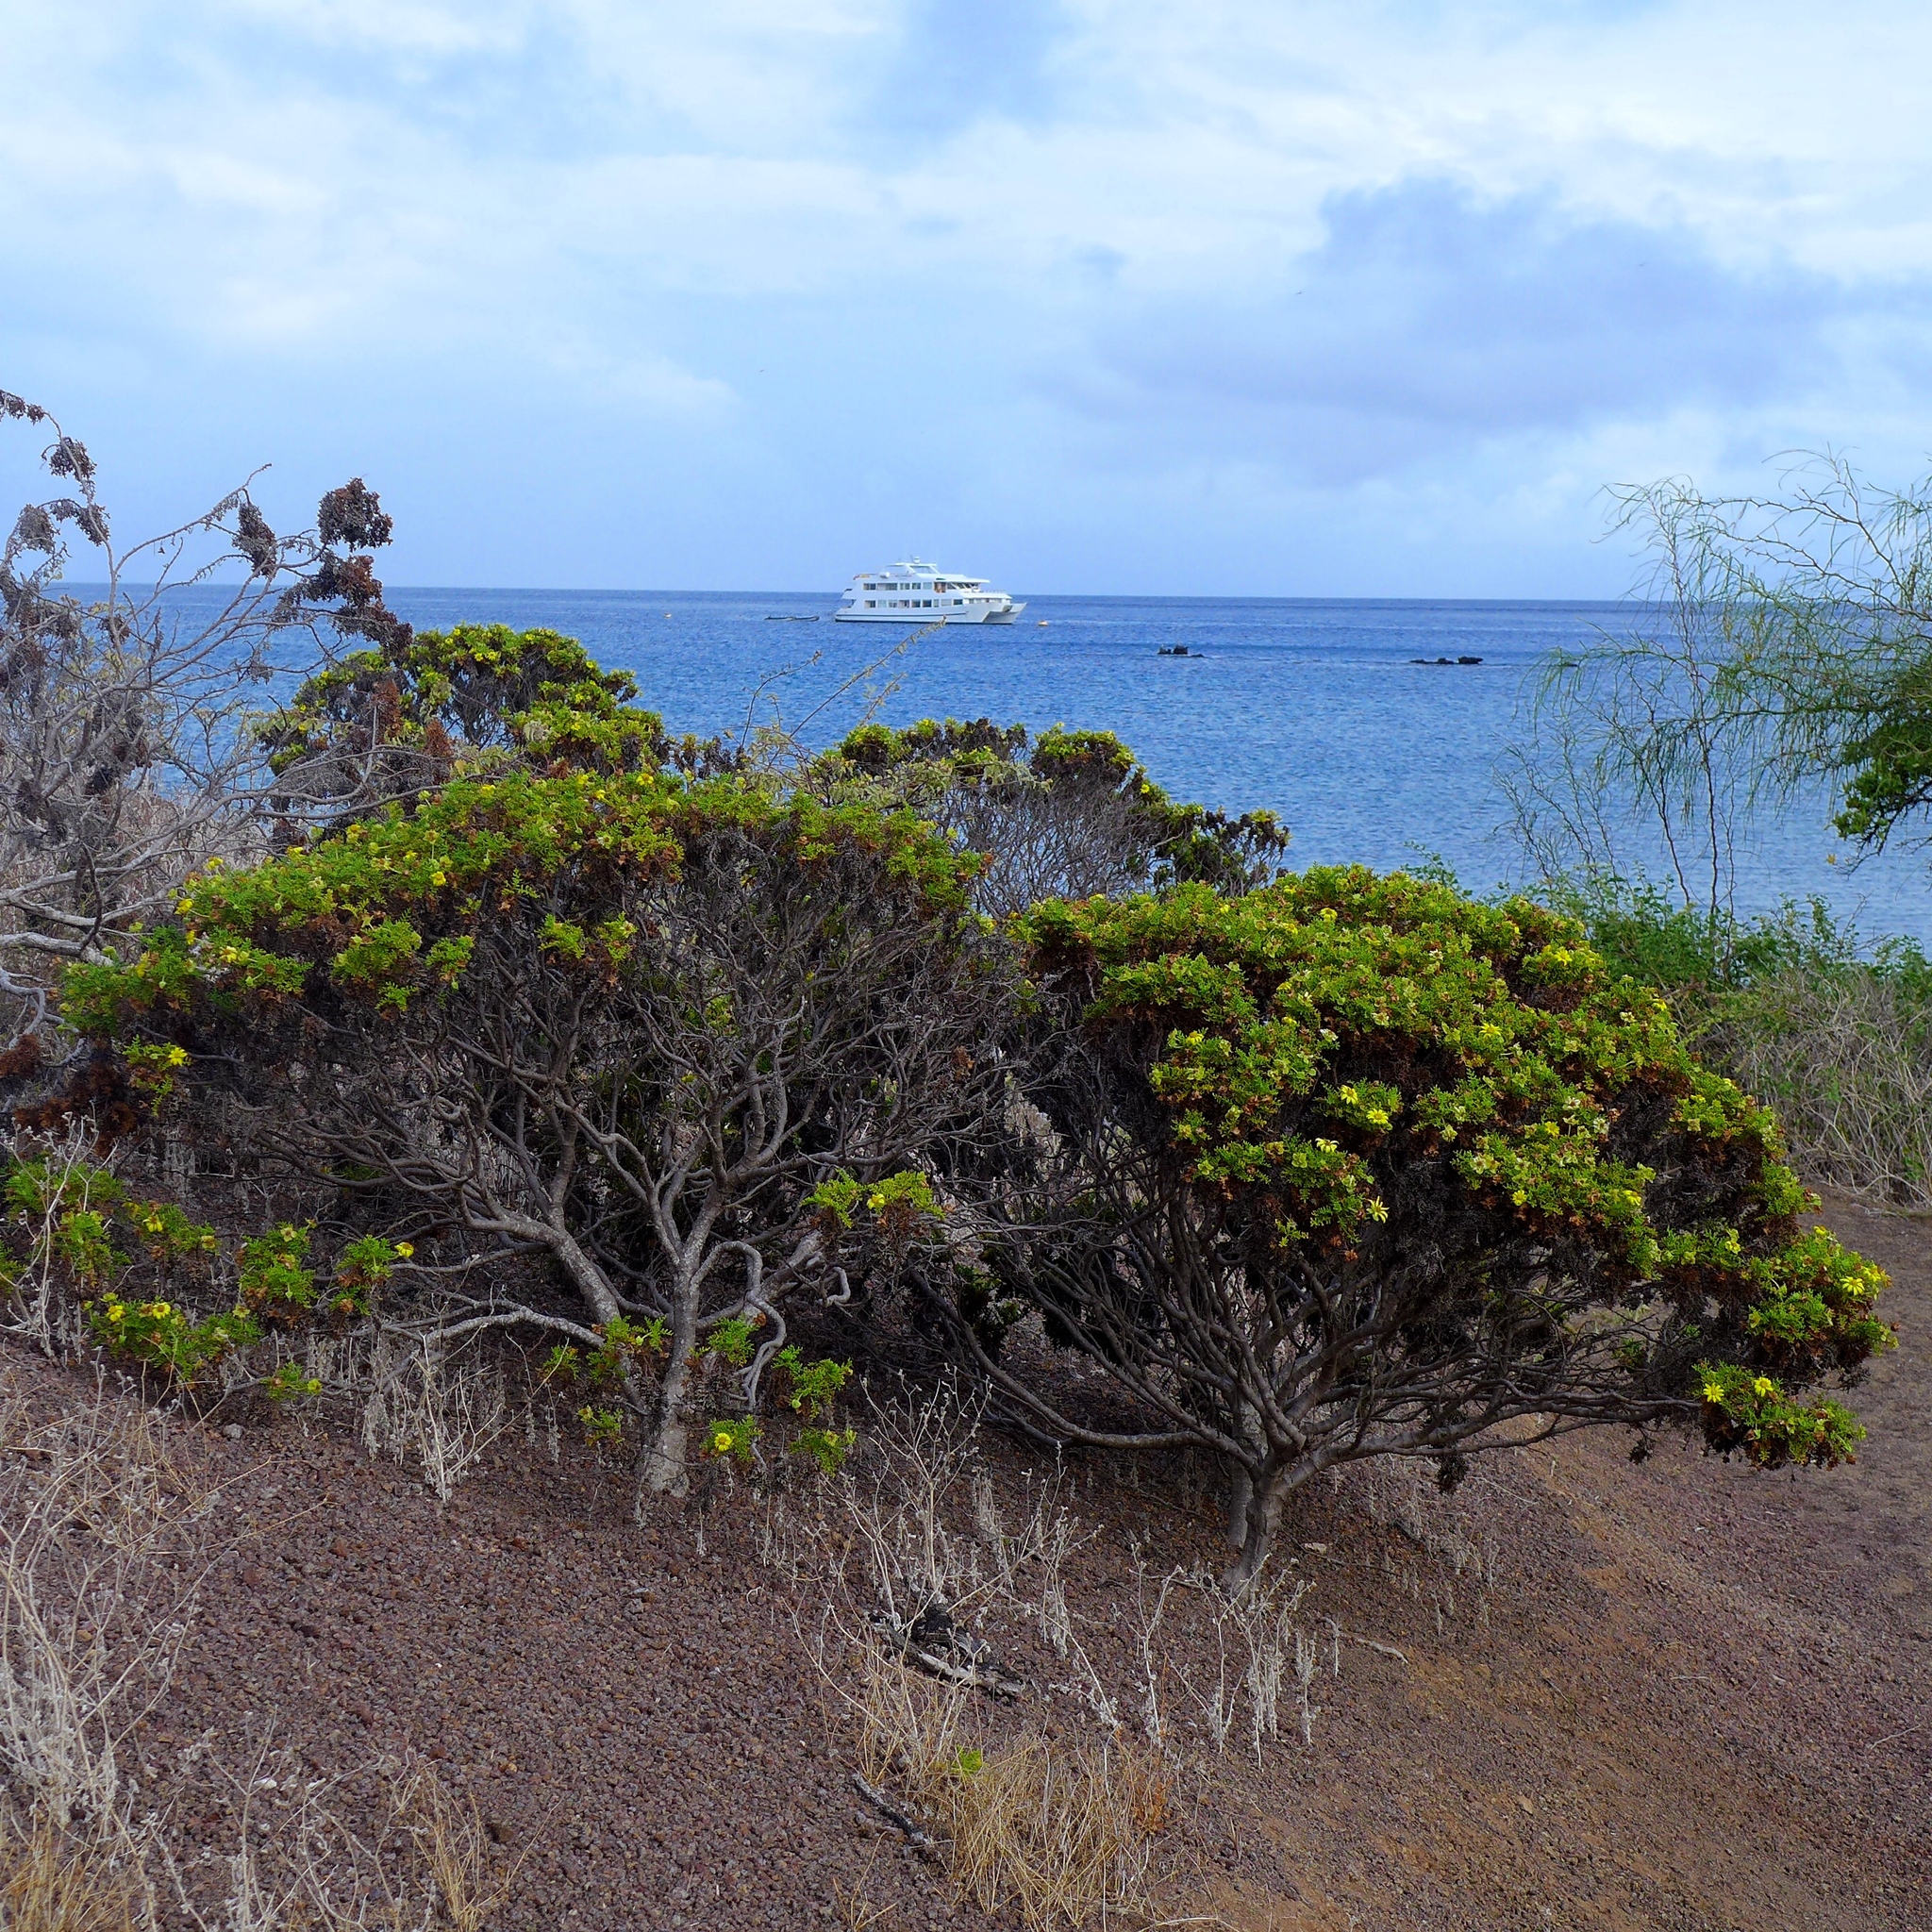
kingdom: Plantae
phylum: Tracheophyta
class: Magnoliopsida
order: Asterales
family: Asteraceae
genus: Lecocarpus
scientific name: Lecocarpus pinnatifidus
